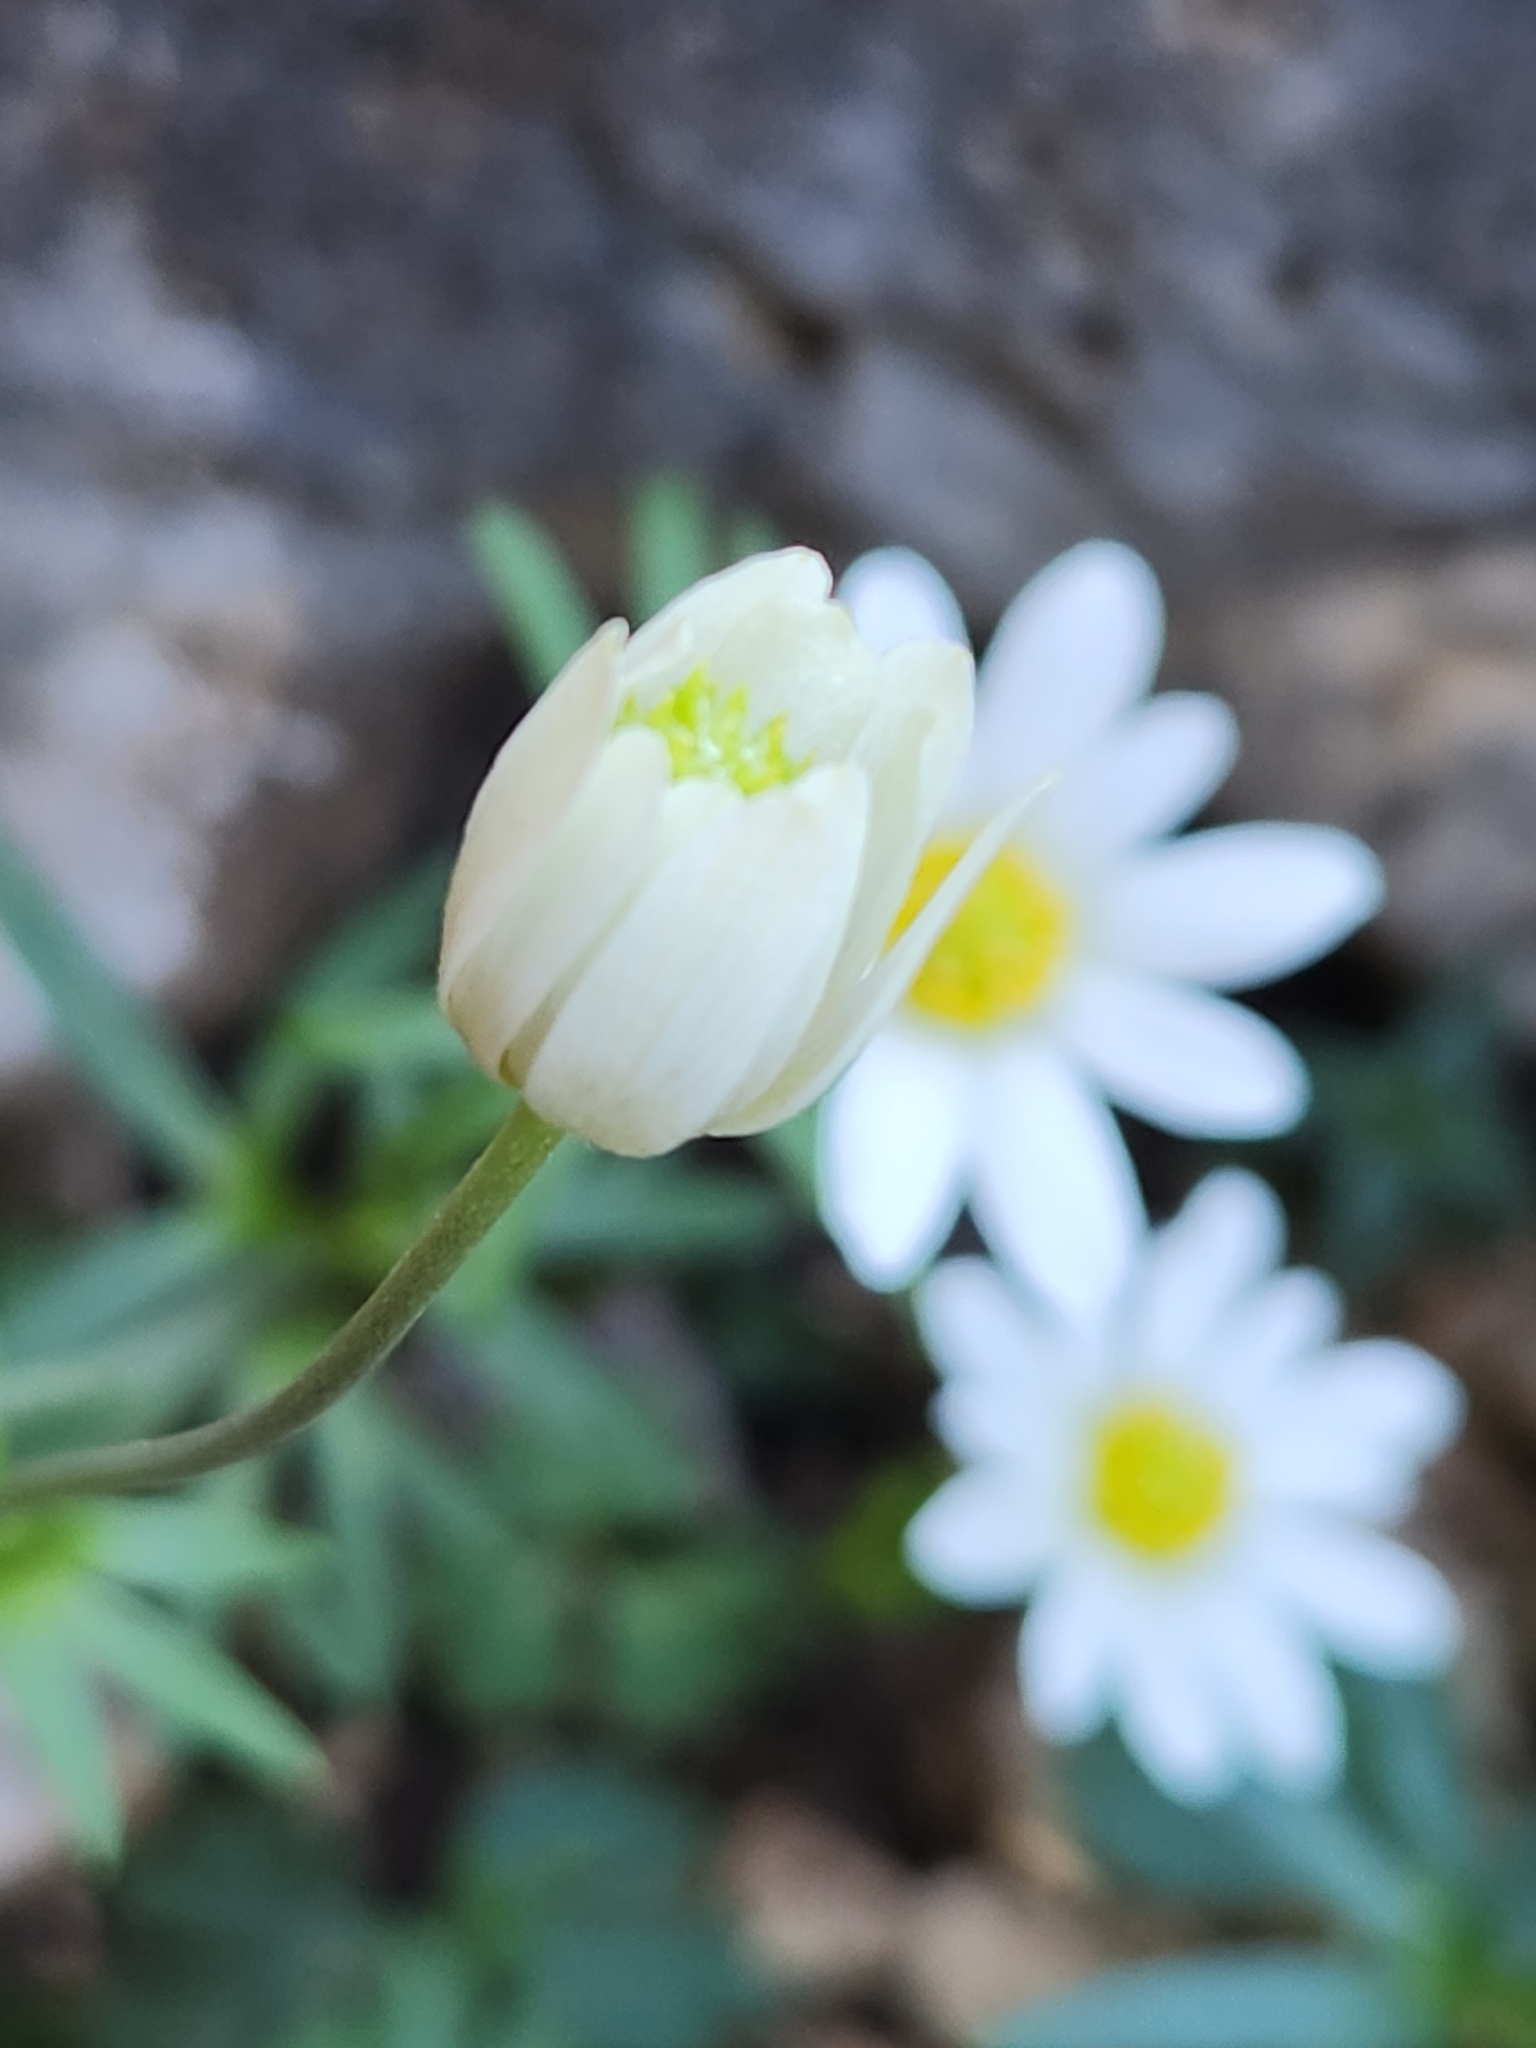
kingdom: Plantae
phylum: Tracheophyta
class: Magnoliopsida
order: Ranunculales
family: Ranunculaceae
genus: Anemone
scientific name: Anemone edwardsiana
